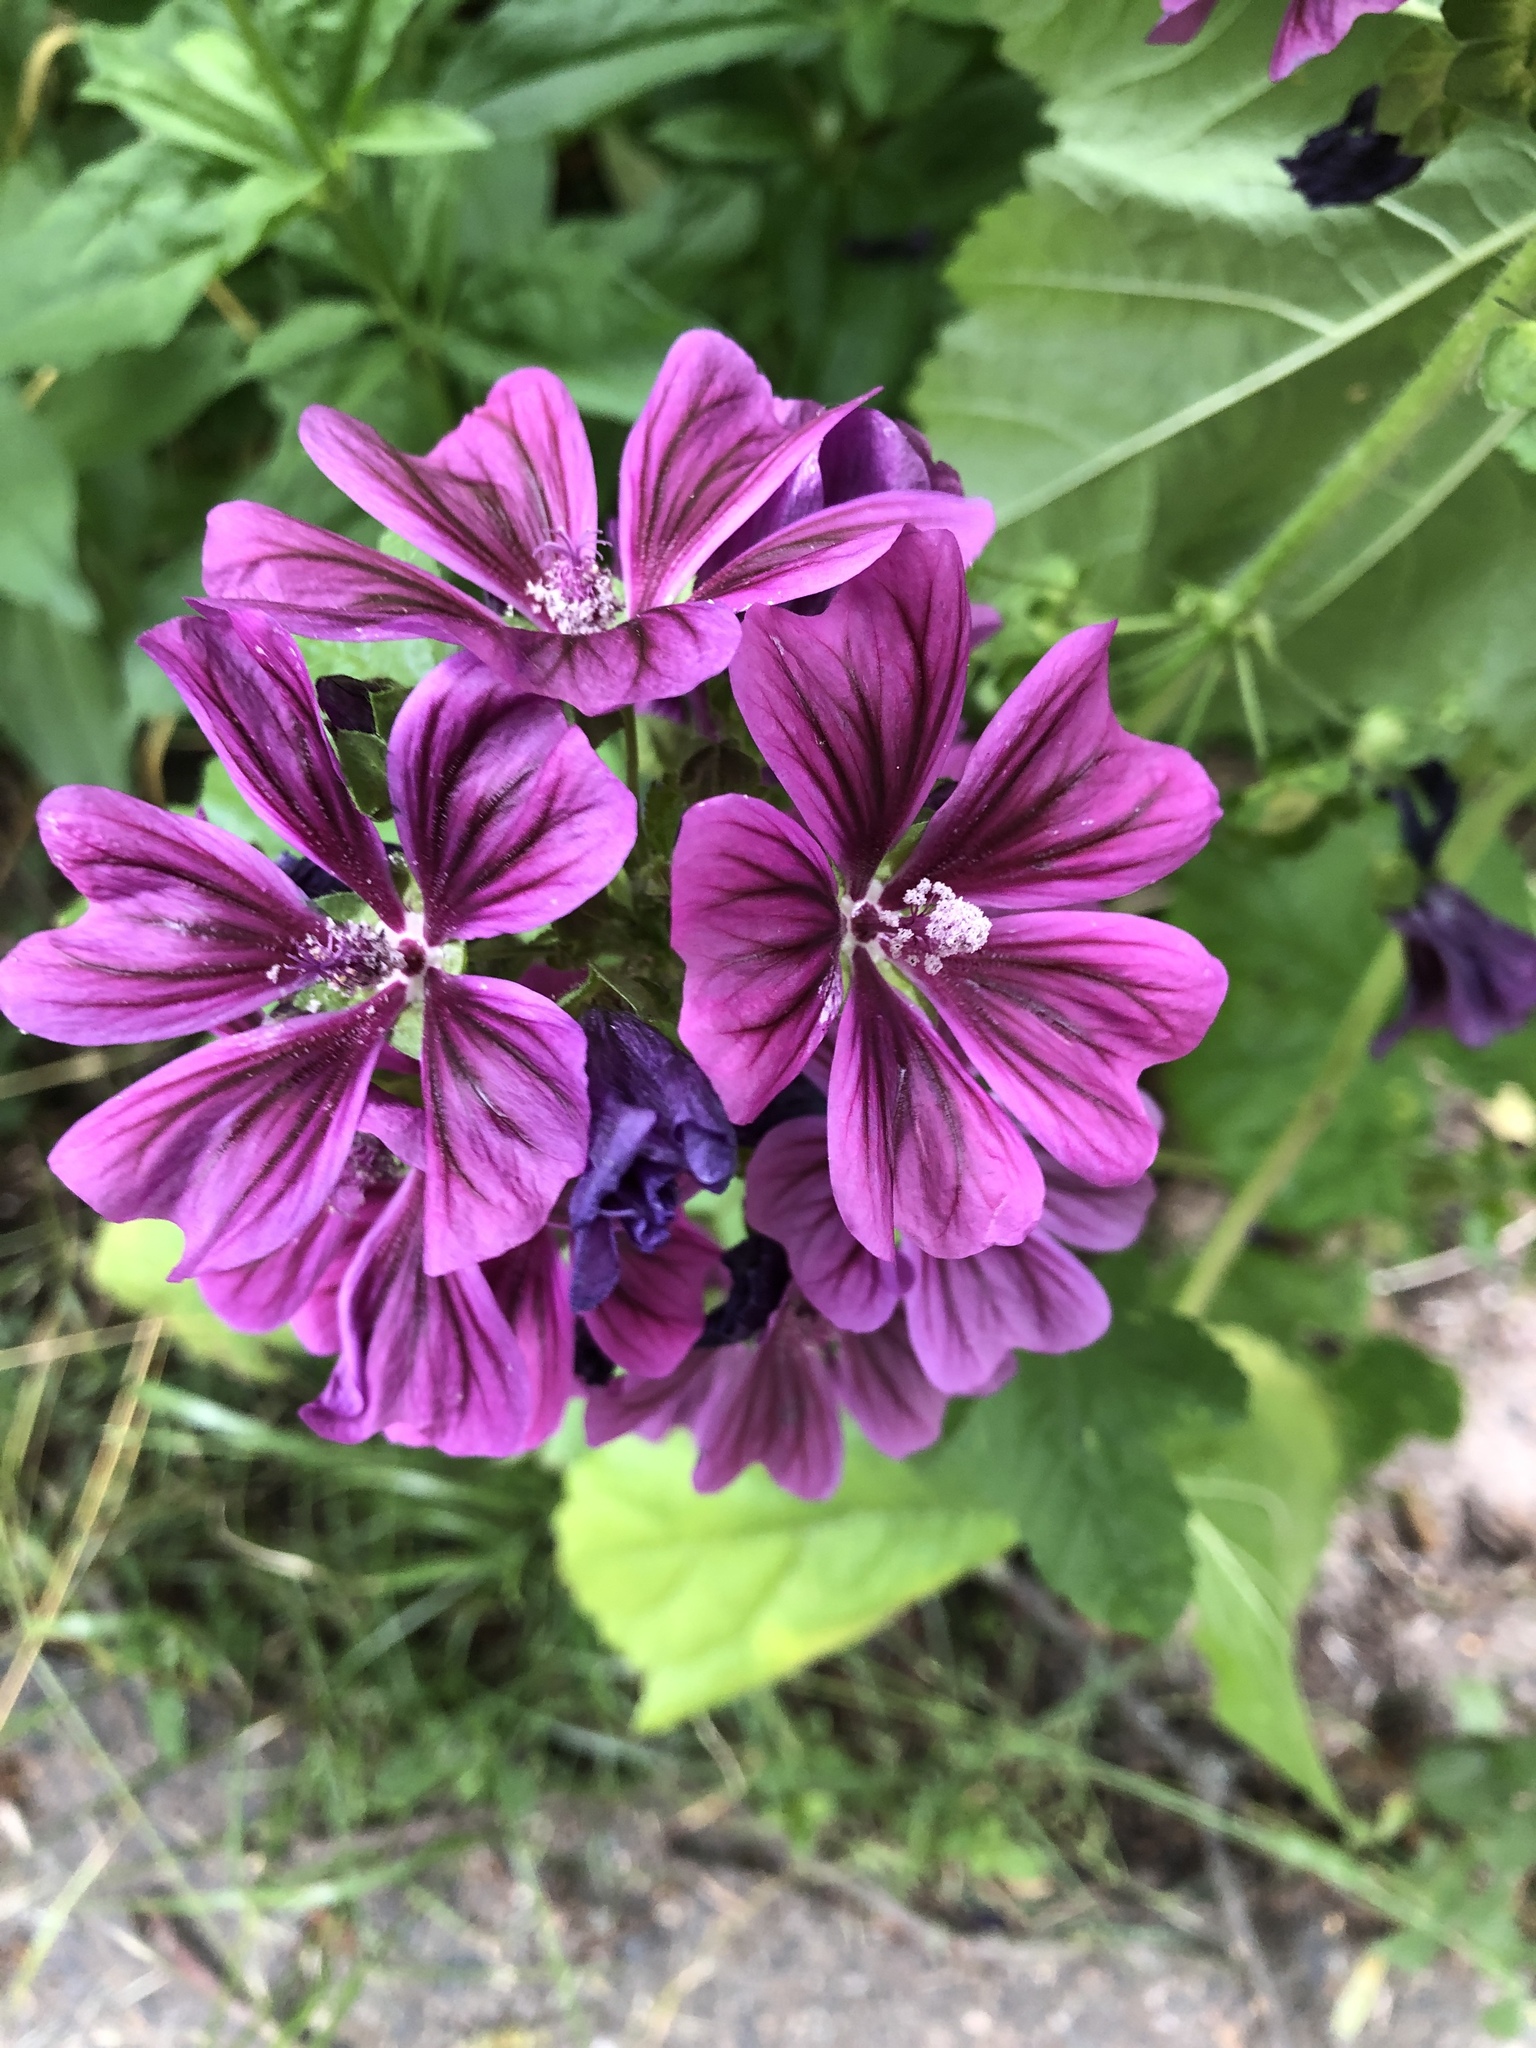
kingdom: Plantae
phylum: Tracheophyta
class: Magnoliopsida
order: Malvales
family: Malvaceae
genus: Malva
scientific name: Malva sylvestris
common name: Common mallow
